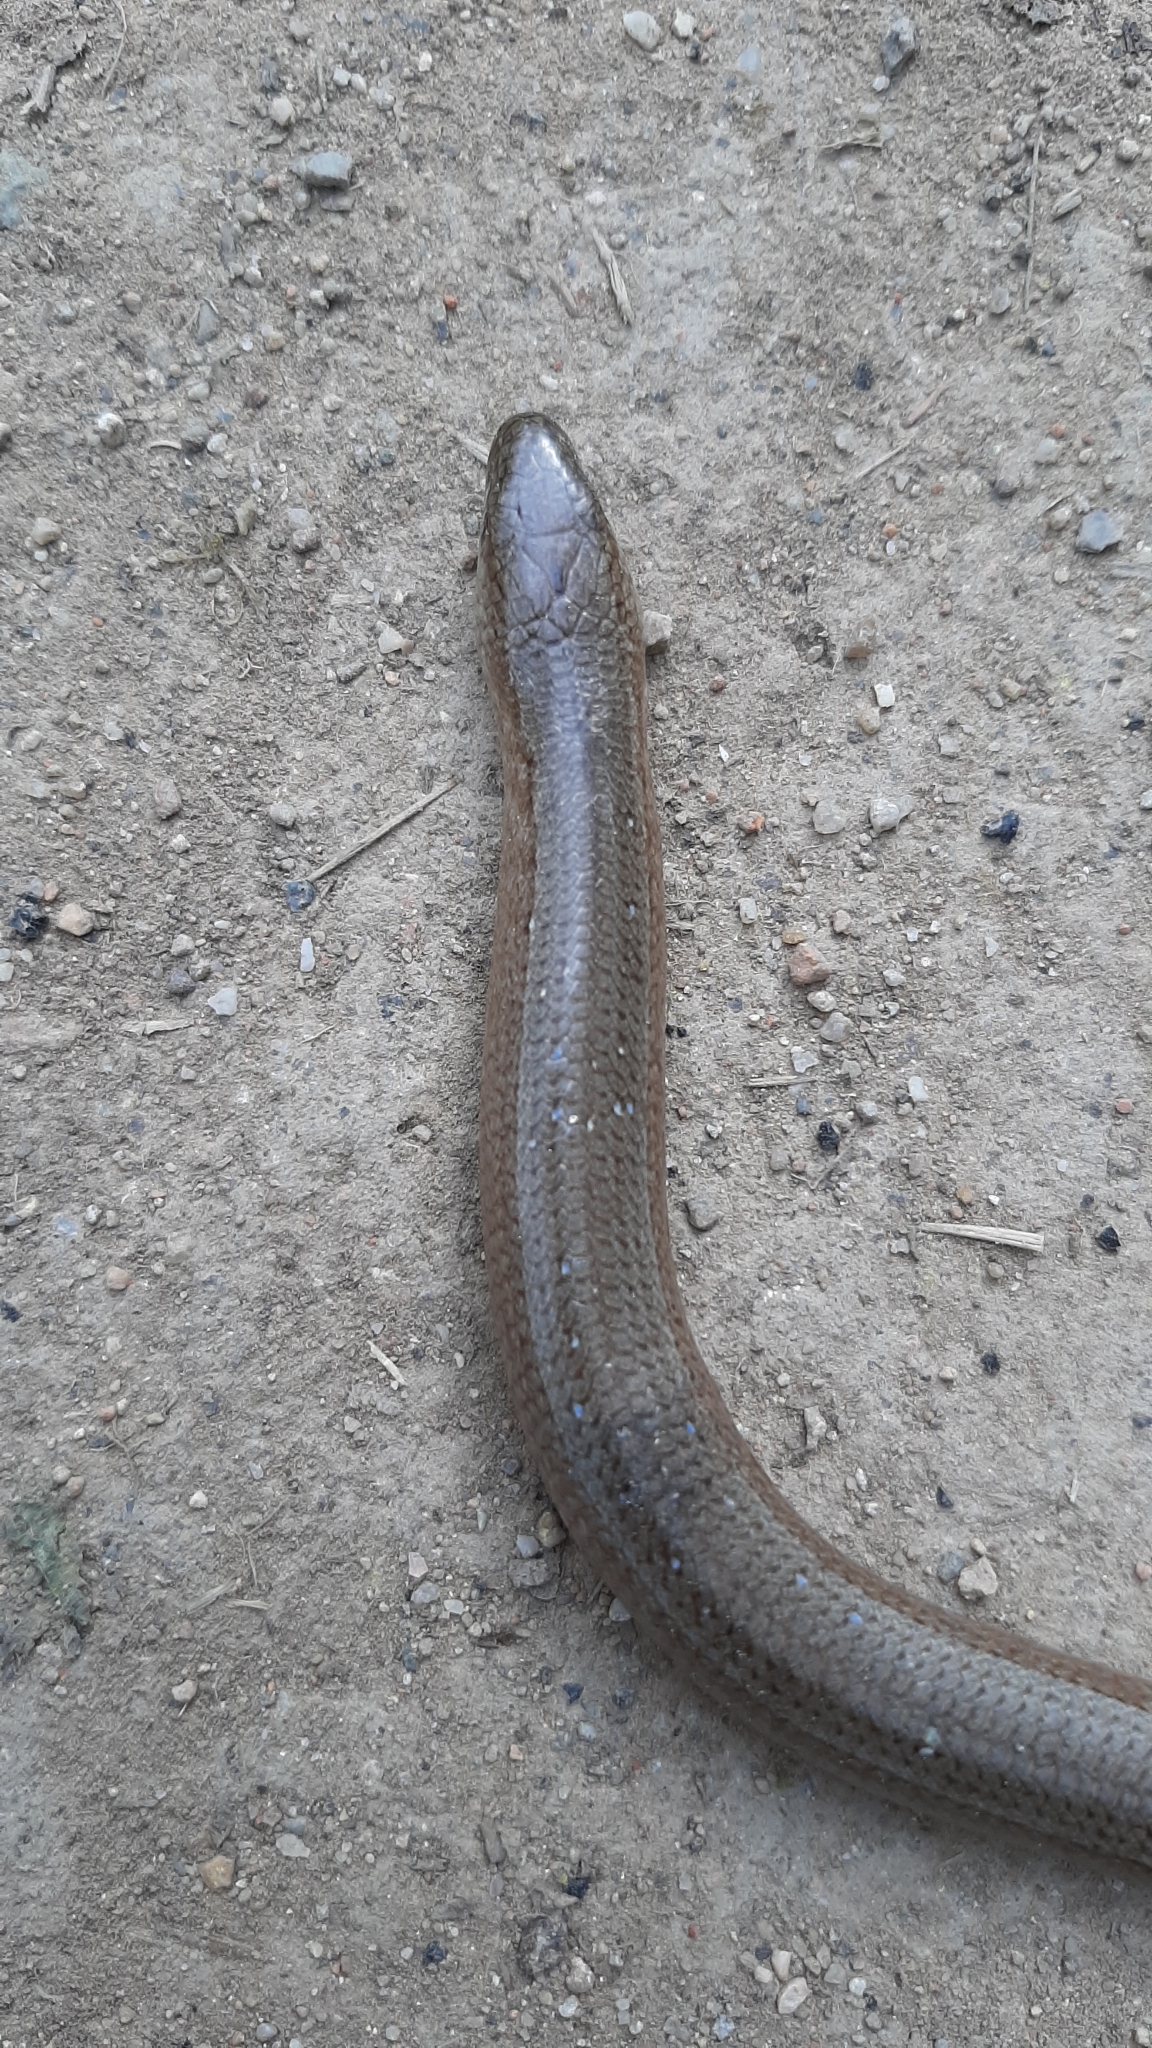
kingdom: Animalia
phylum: Chordata
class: Squamata
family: Anguidae
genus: Anguis
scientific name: Anguis fragilis
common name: Slow worm
